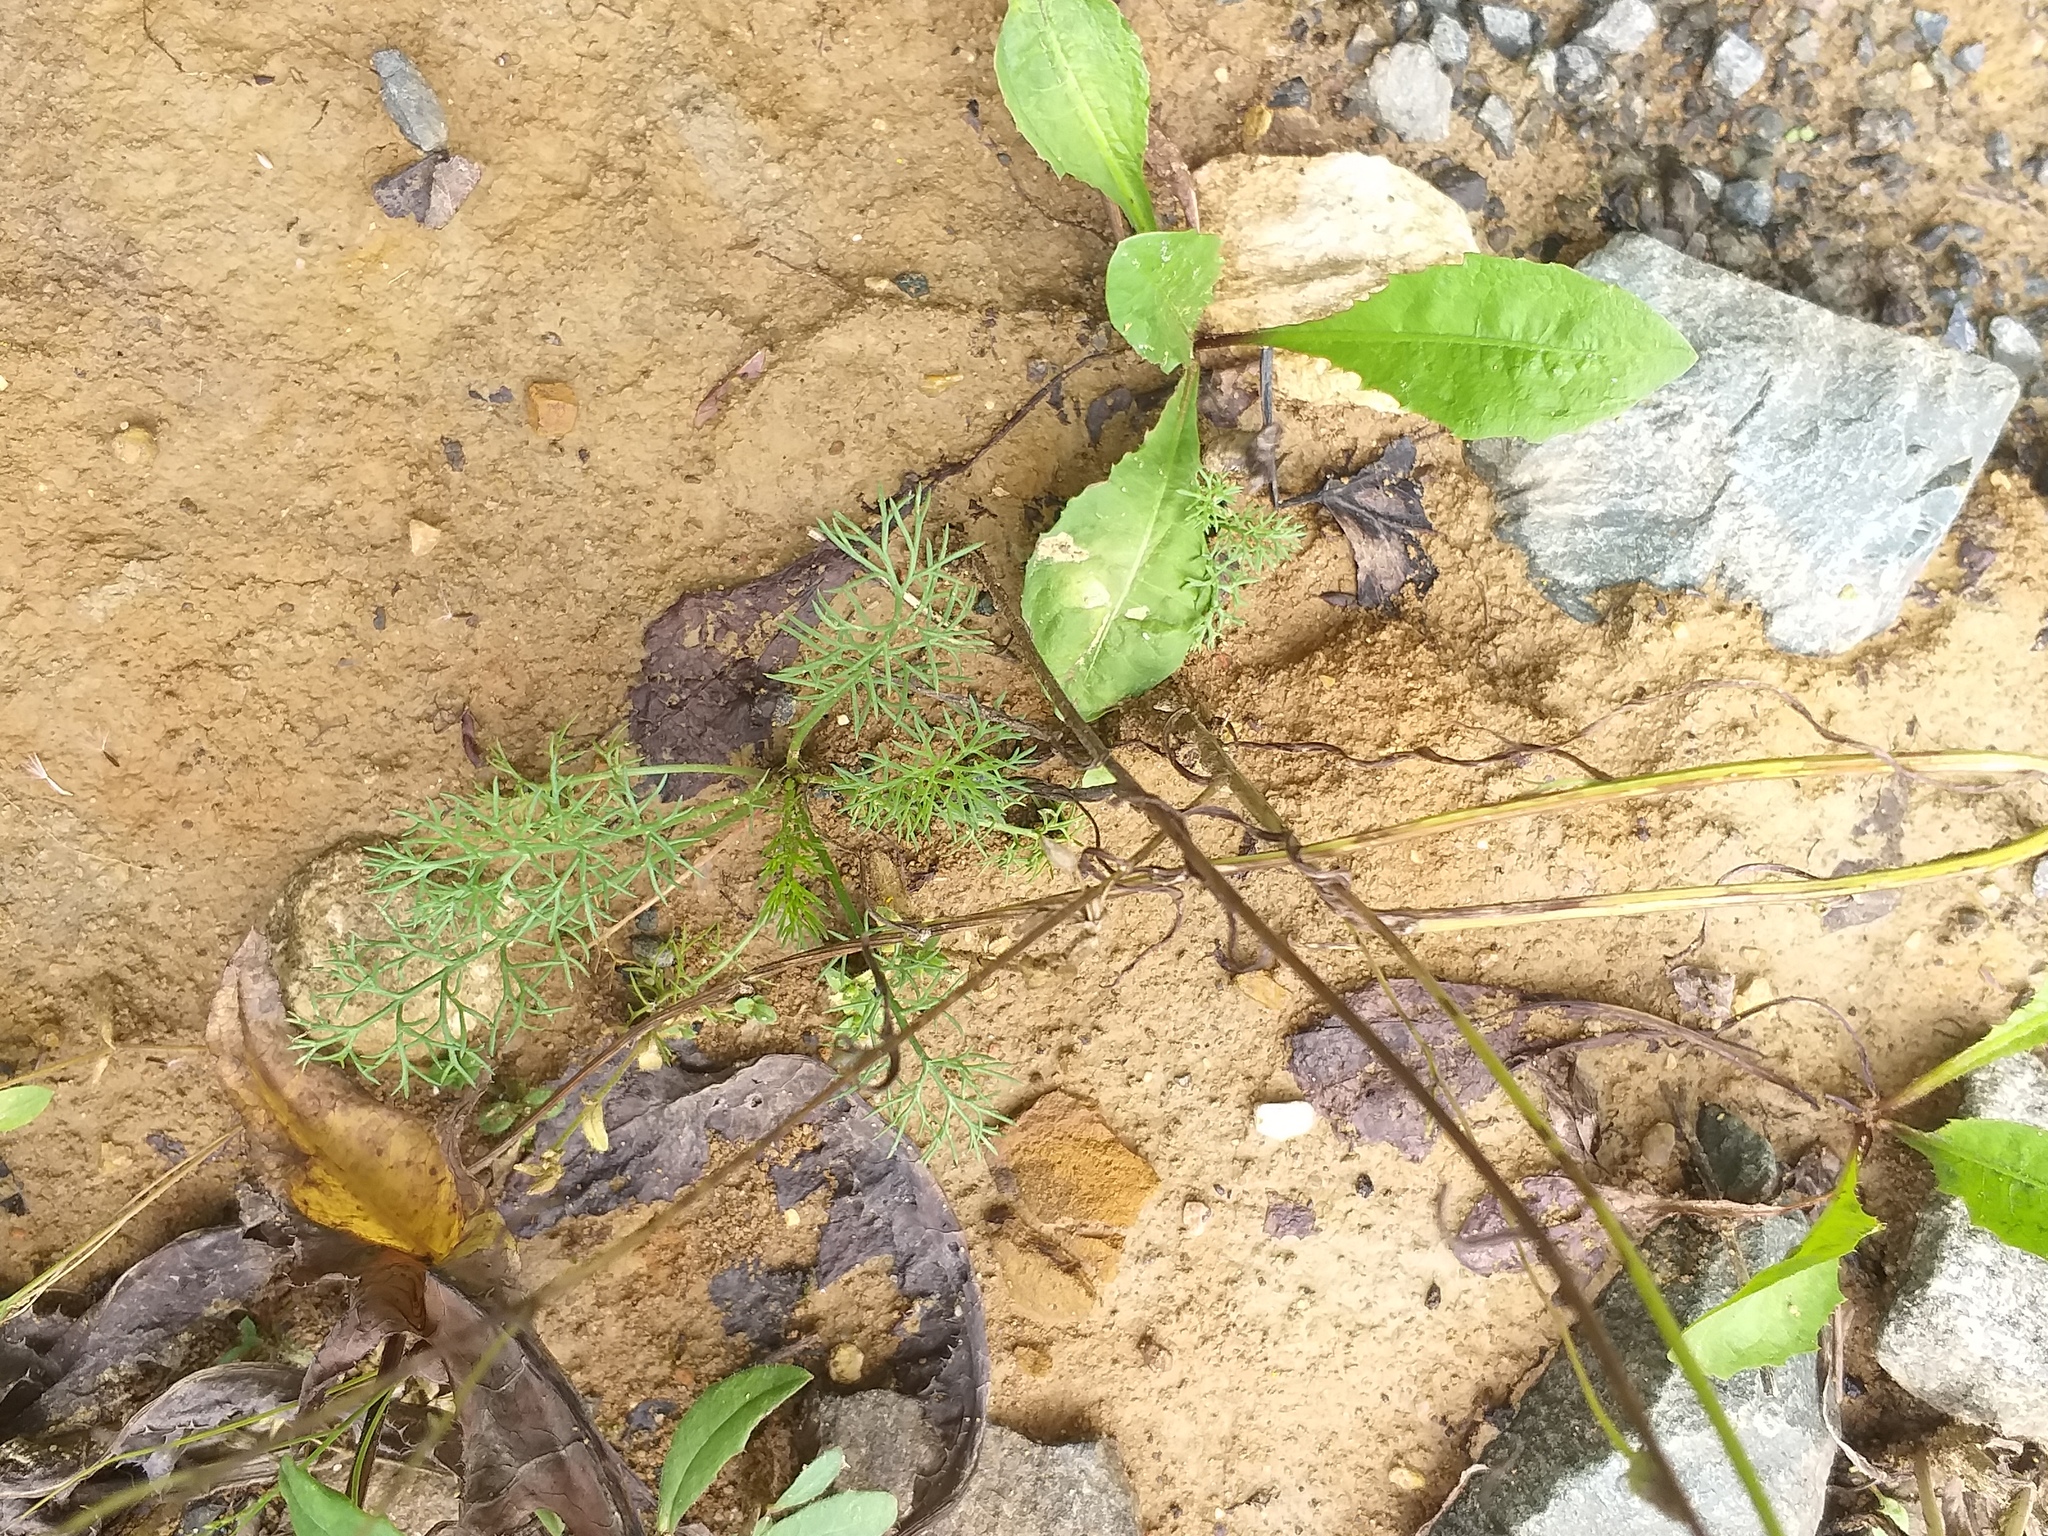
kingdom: Plantae
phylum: Tracheophyta
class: Magnoliopsida
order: Asterales
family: Asteraceae
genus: Tripleurospermum
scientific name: Tripleurospermum inodorum
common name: Scentless mayweed
